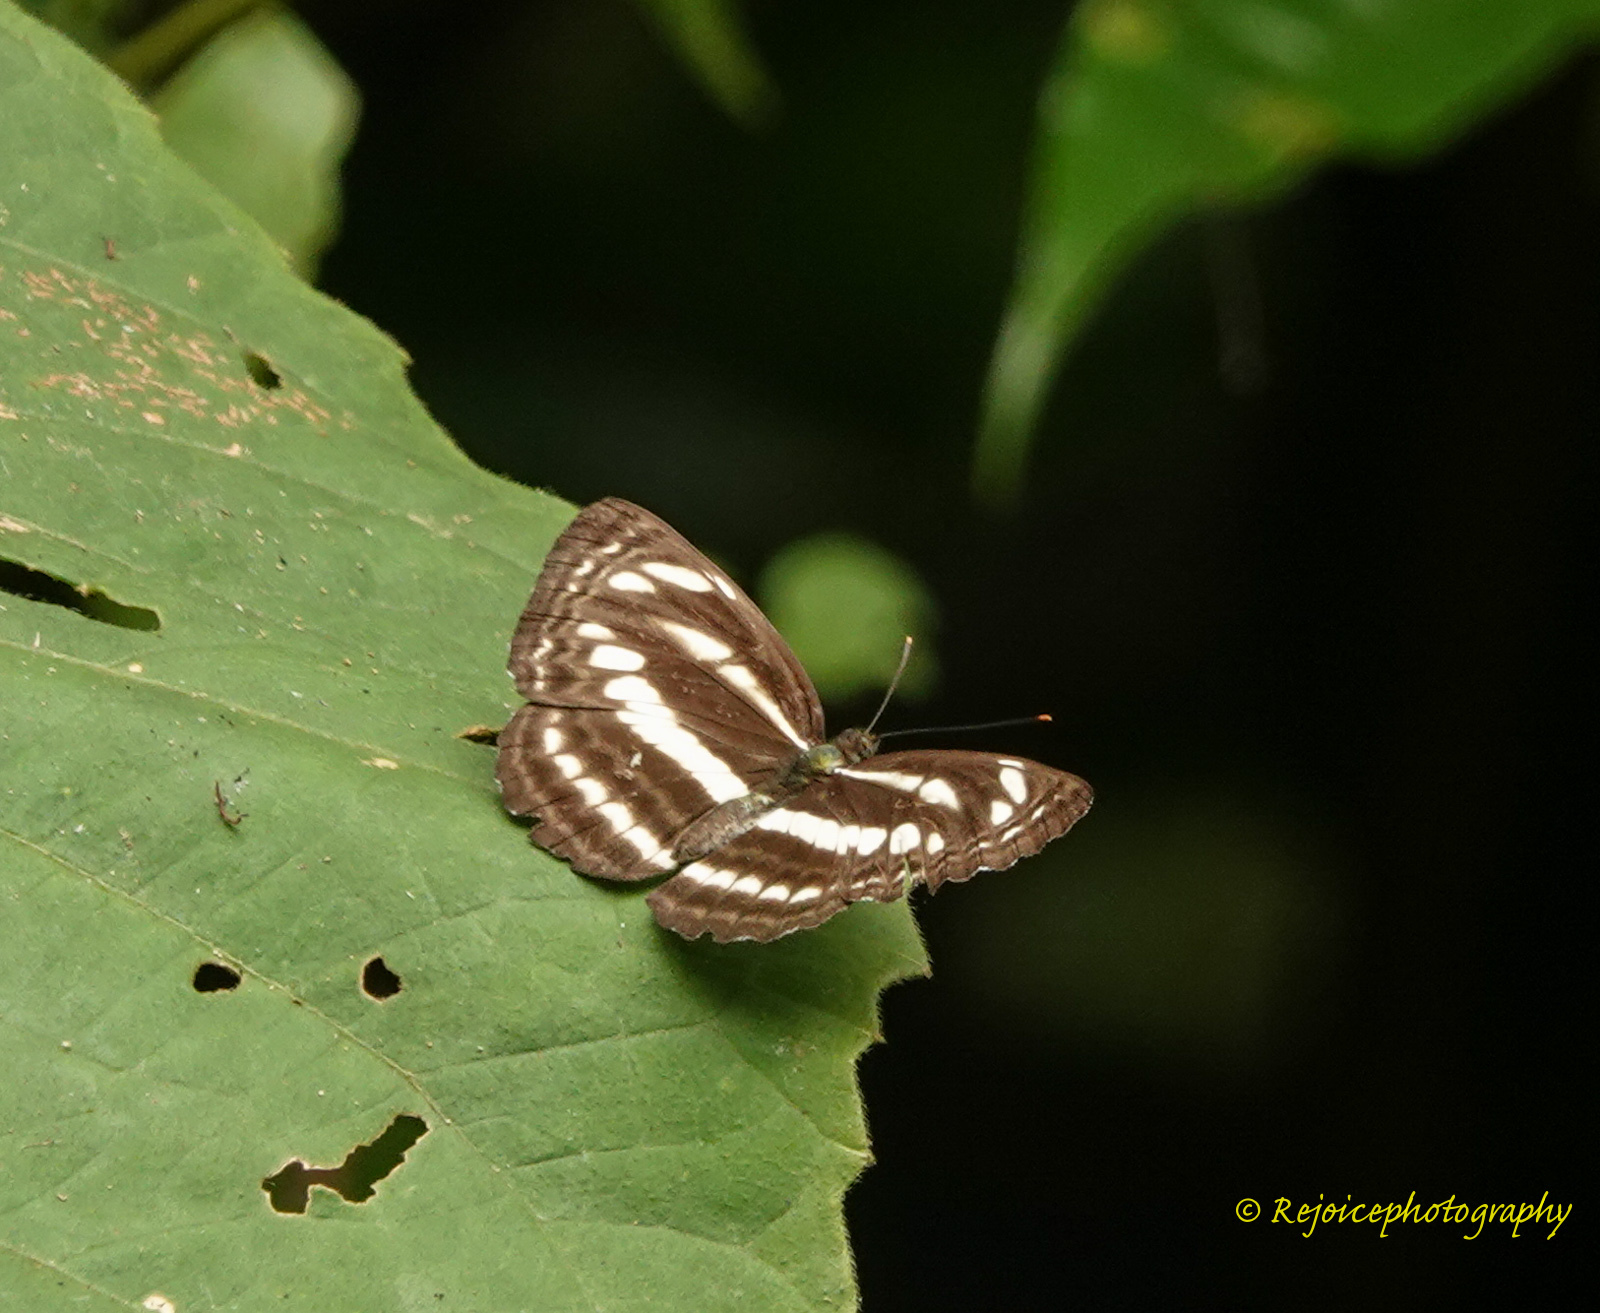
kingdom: Animalia
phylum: Arthropoda
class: Insecta
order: Lepidoptera
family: Nymphalidae
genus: Neptis
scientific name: Neptis hylas
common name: Common sailer
